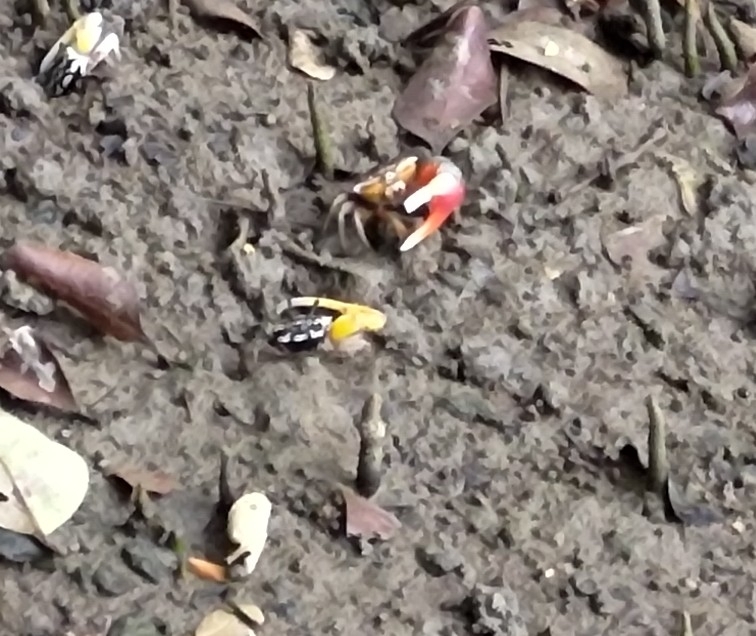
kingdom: Animalia
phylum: Arthropoda
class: Malacostraca
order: Decapoda
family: Ocypodidae
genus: Austruca
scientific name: Austruca perplexa
